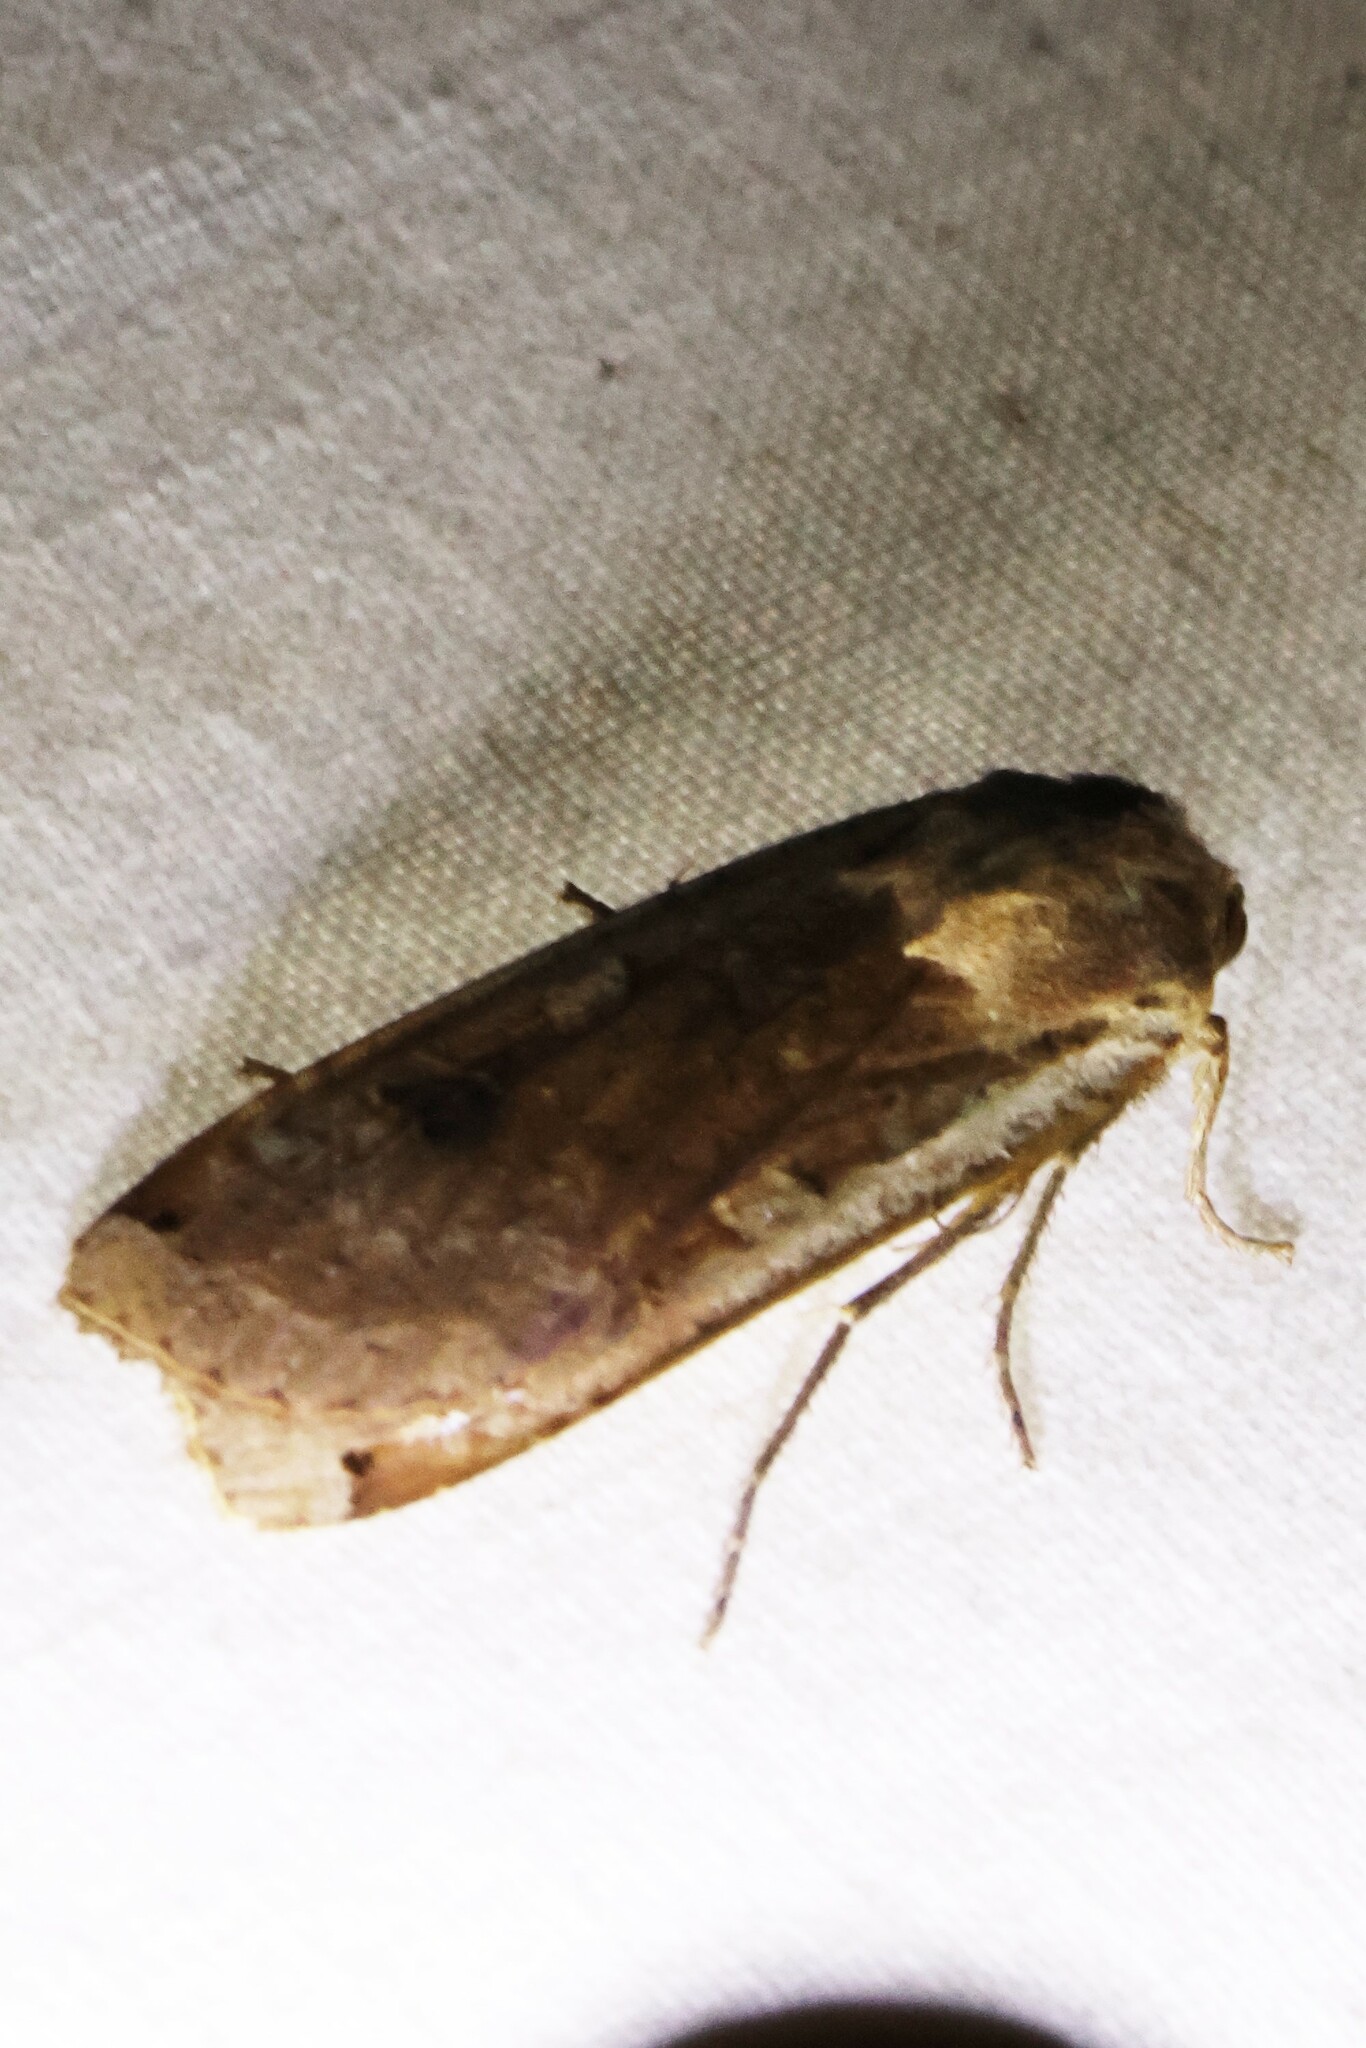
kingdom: Animalia
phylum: Arthropoda
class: Insecta
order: Lepidoptera
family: Noctuidae
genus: Noctua
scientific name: Noctua pronuba
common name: Large yellow underwing
